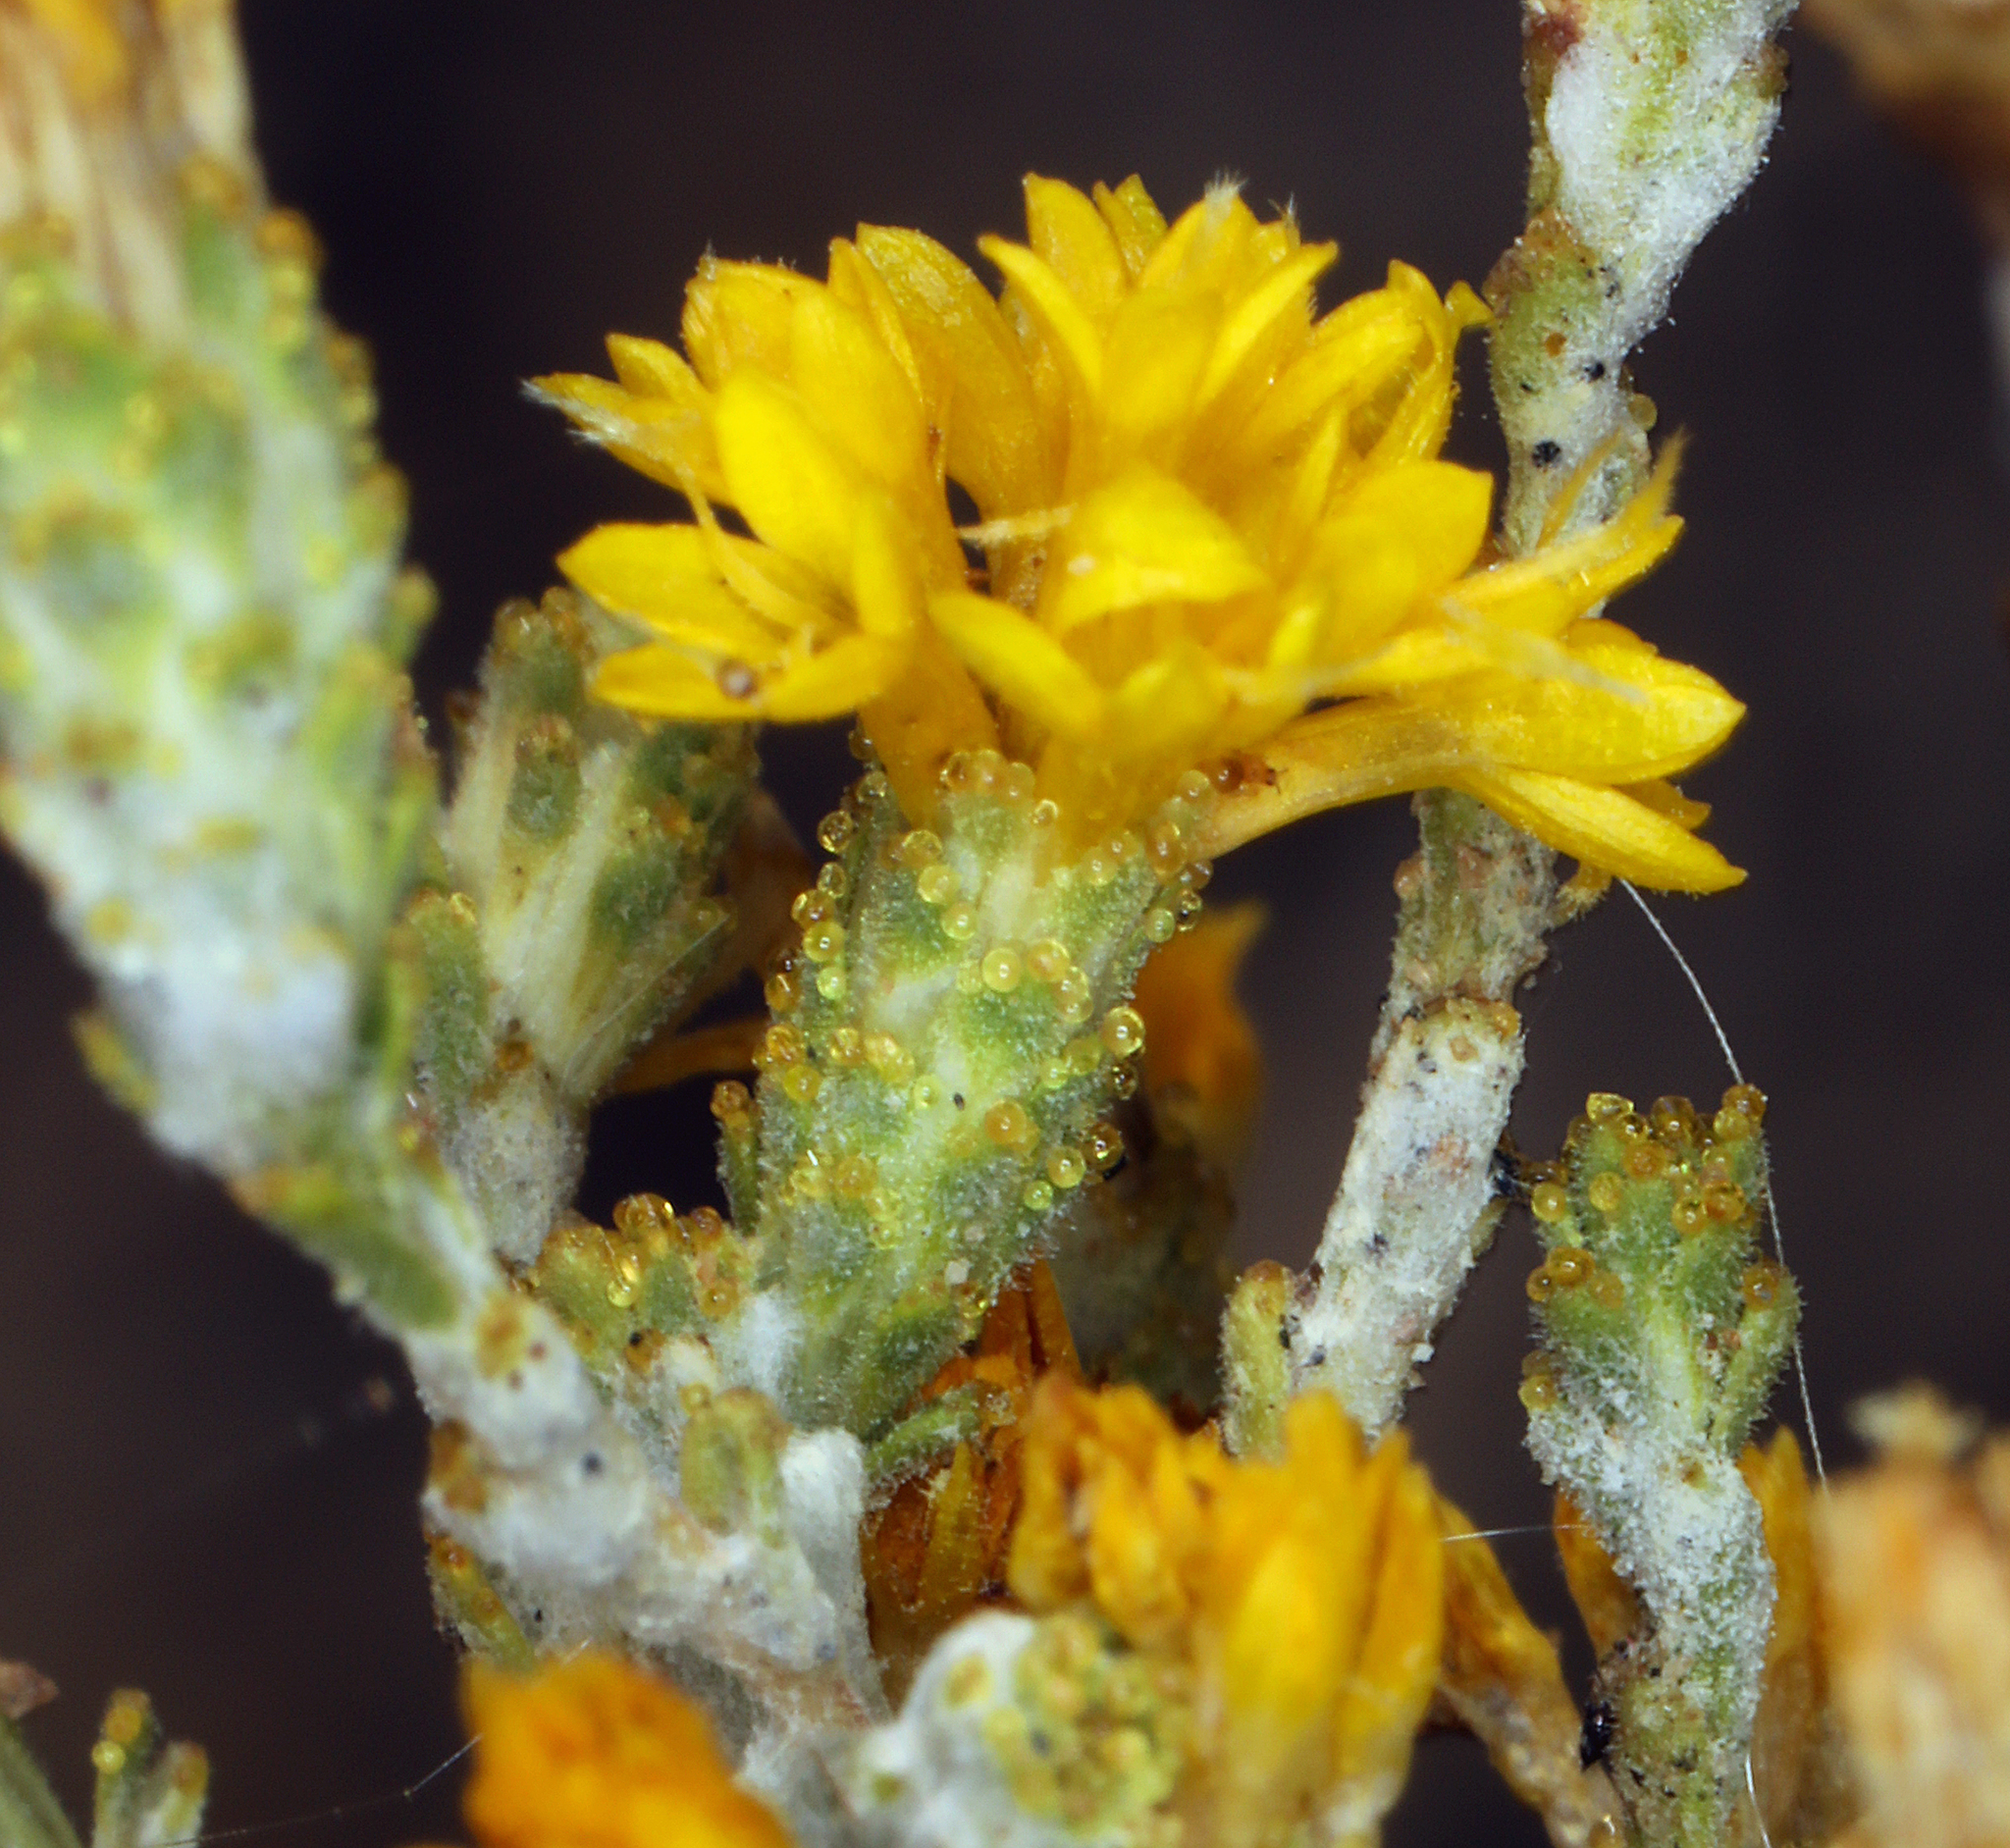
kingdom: Plantae
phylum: Tracheophyta
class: Magnoliopsida
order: Asterales
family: Asteraceae
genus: Lessingia
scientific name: Lessingia glandulifera
